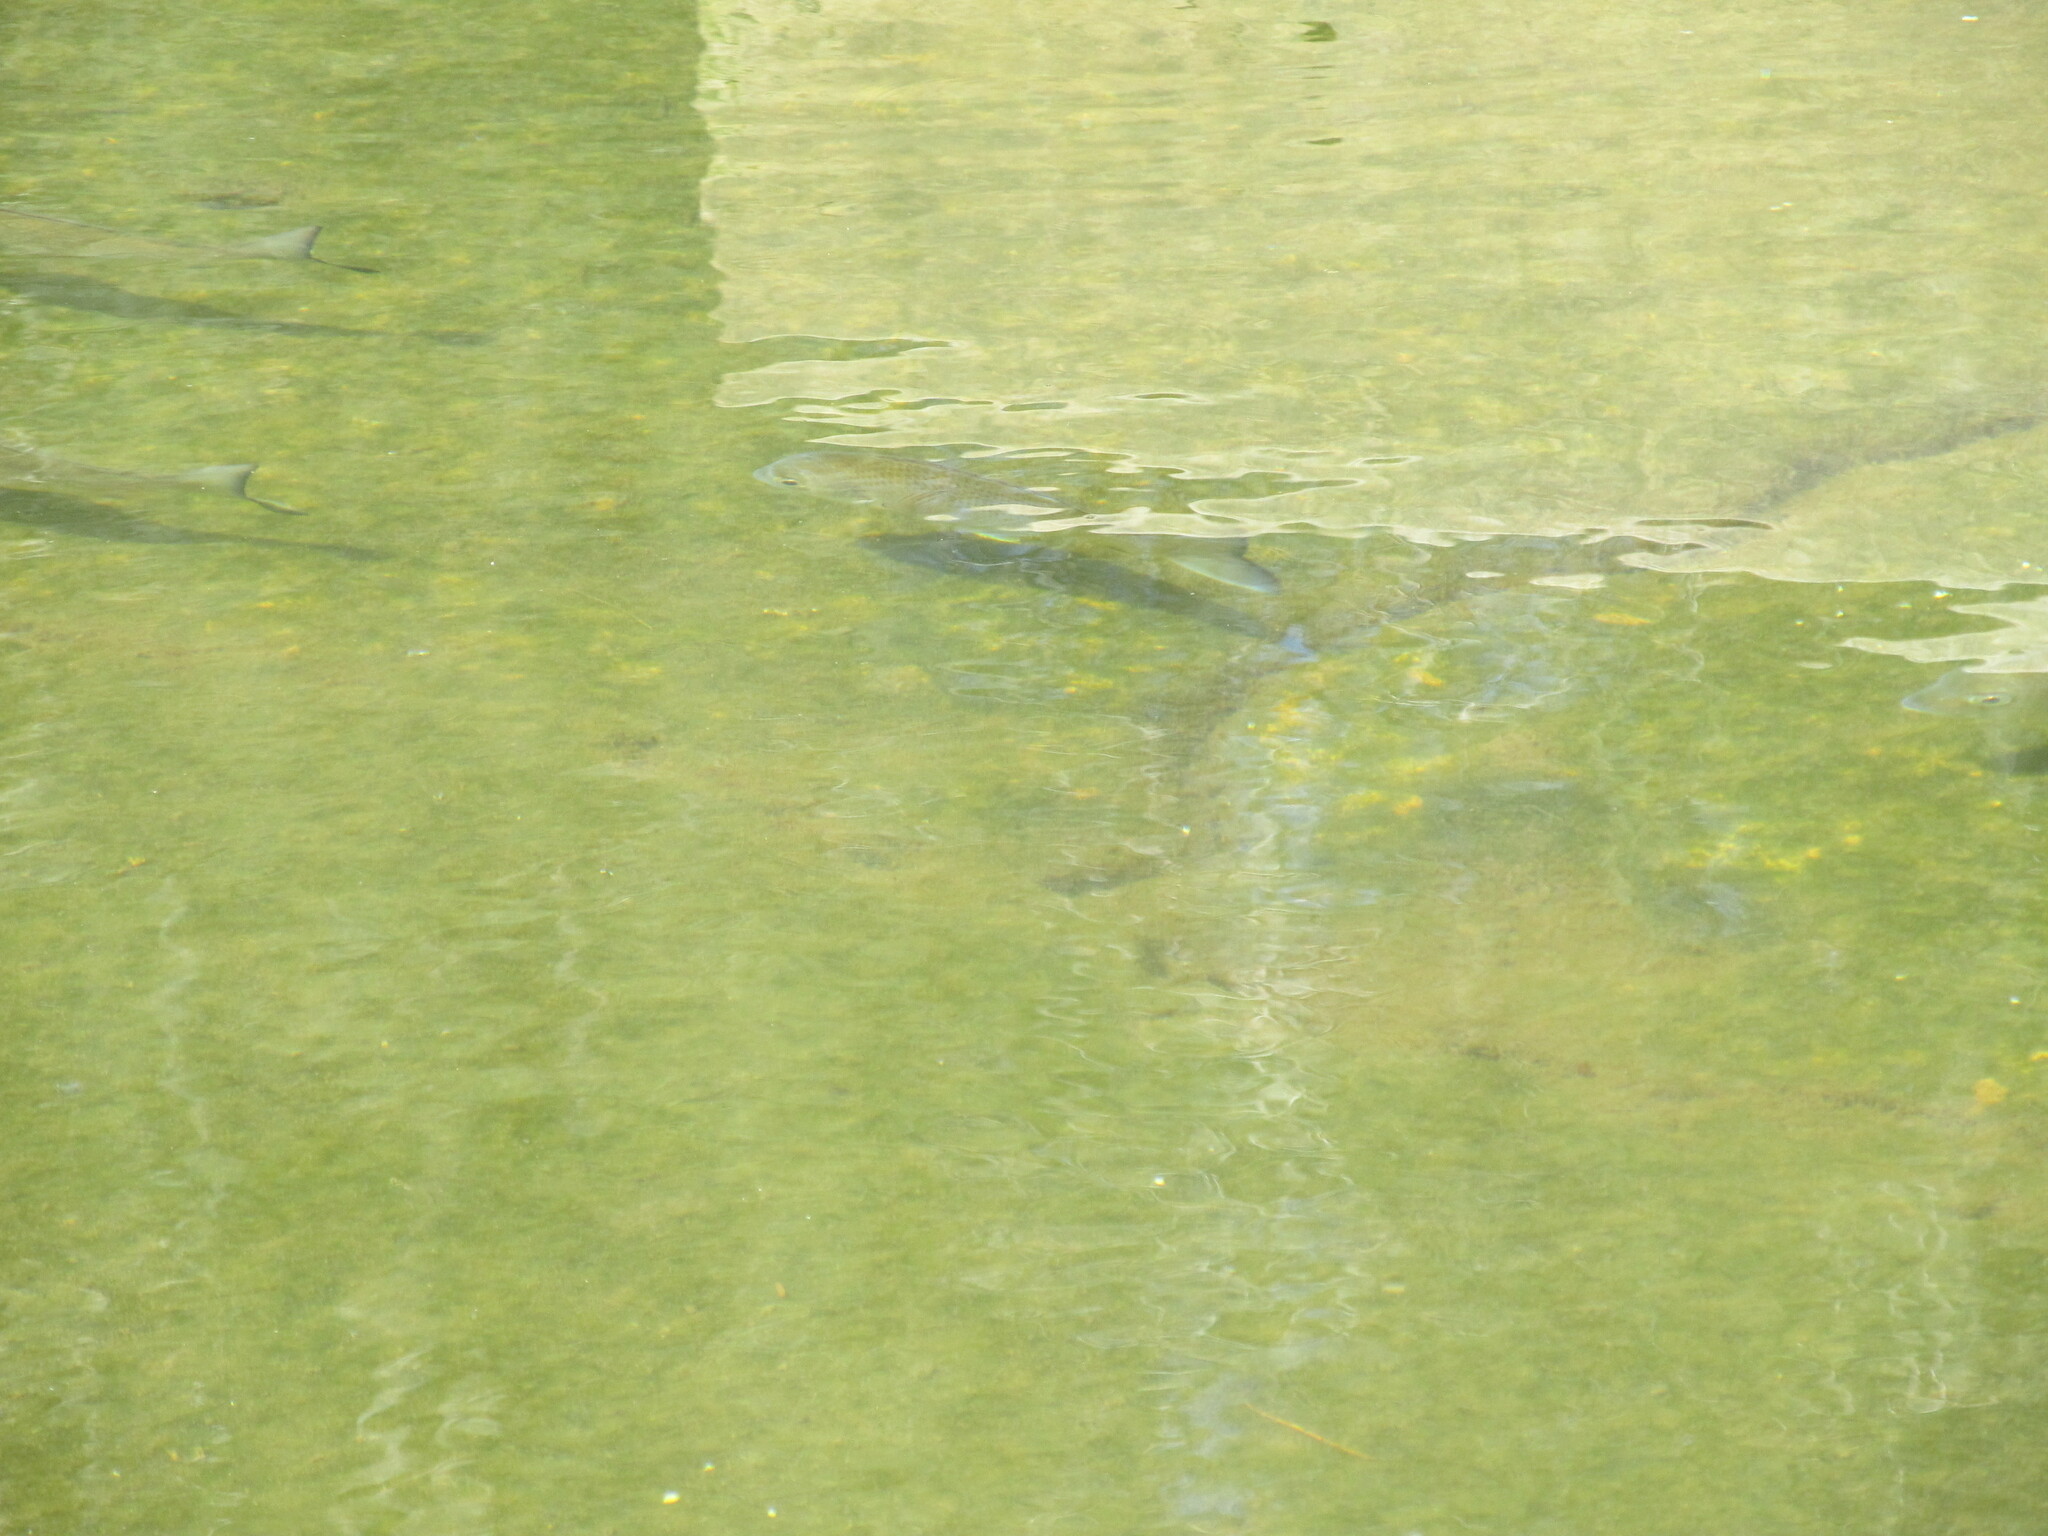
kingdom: Animalia
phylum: Chordata
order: Perciformes
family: Sparidae
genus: Acanthopagrus
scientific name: Acanthopagrus australis
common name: Surf bream
